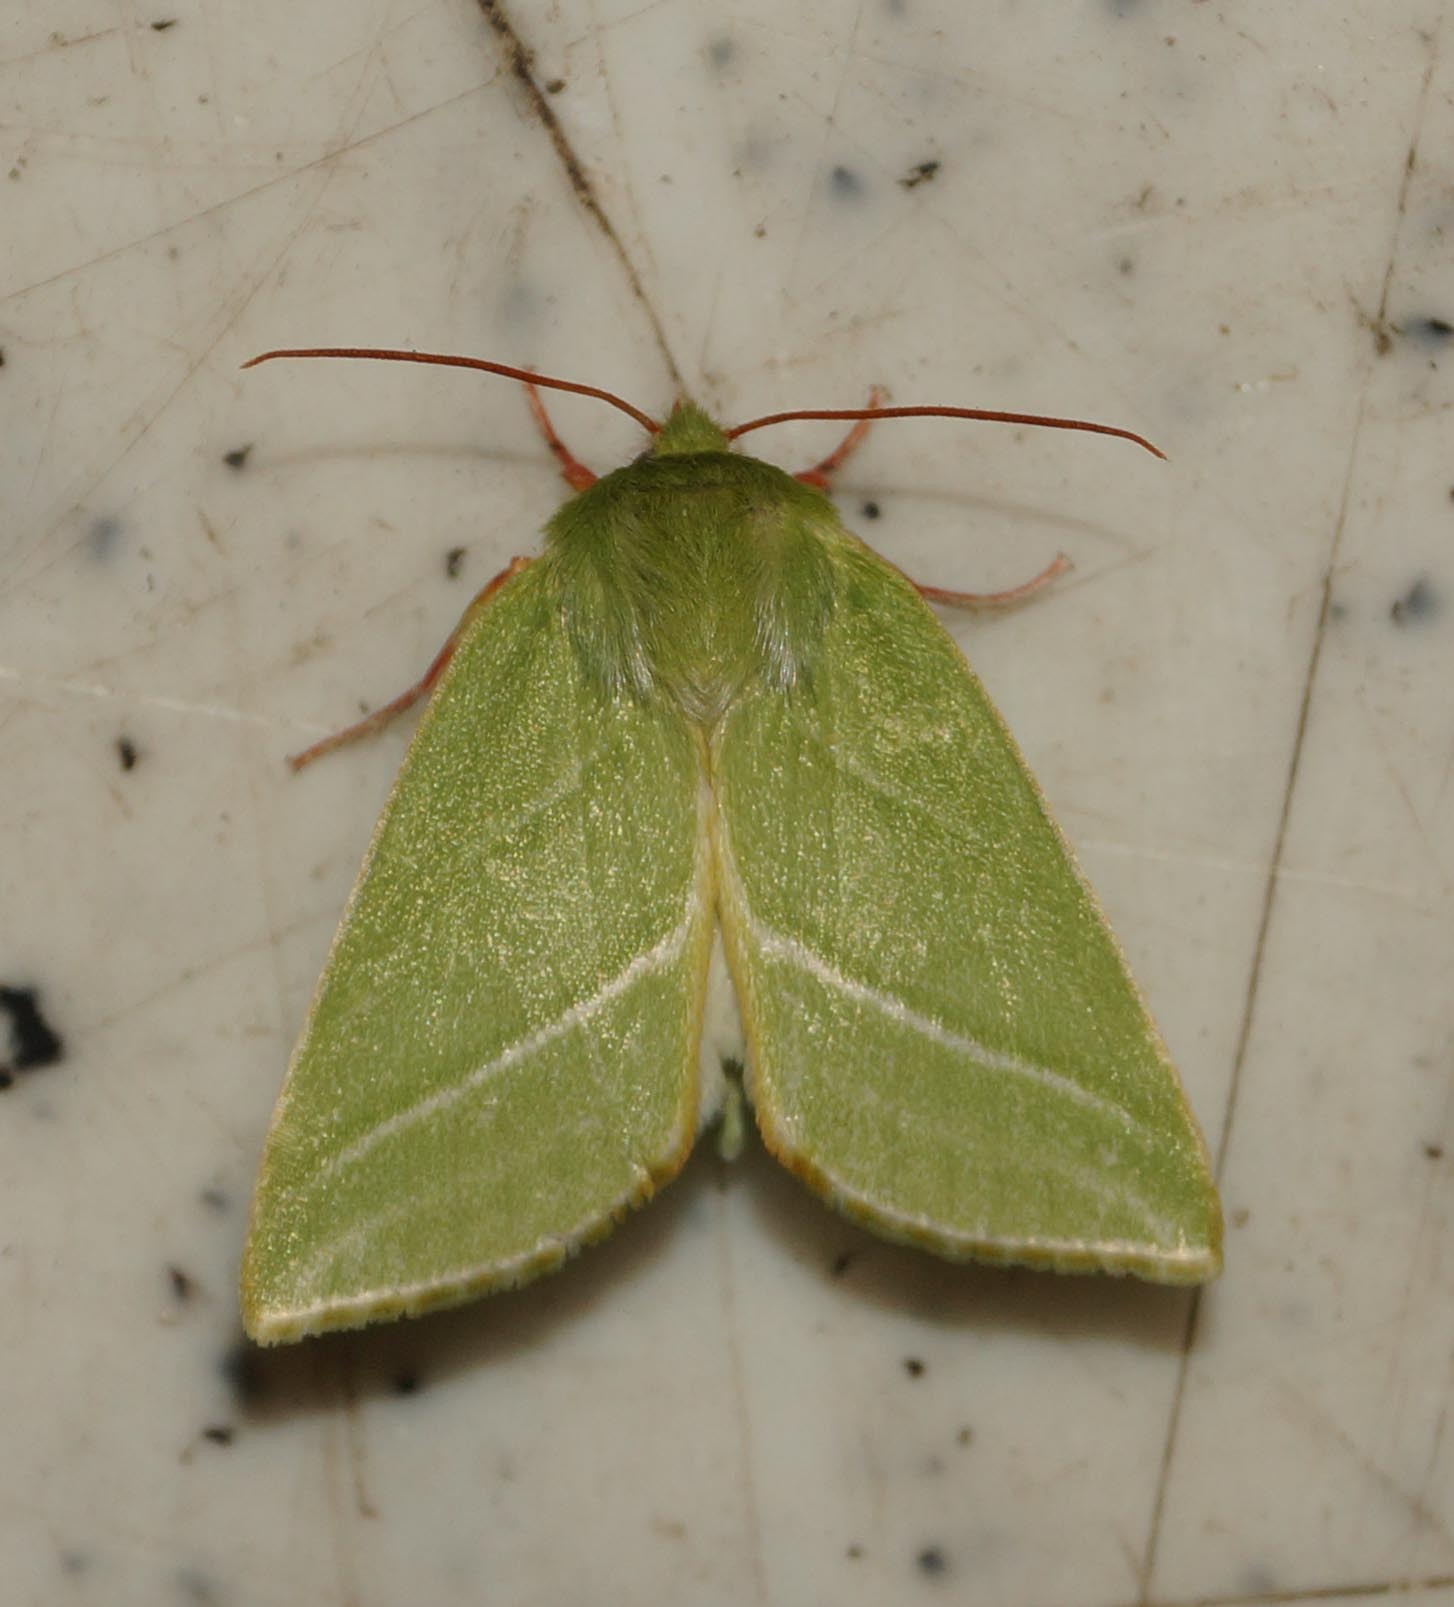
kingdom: Animalia
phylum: Arthropoda
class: Insecta
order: Lepidoptera
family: Nolidae
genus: Pseudoips
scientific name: Pseudoips prasinana
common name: Green silver-lines
